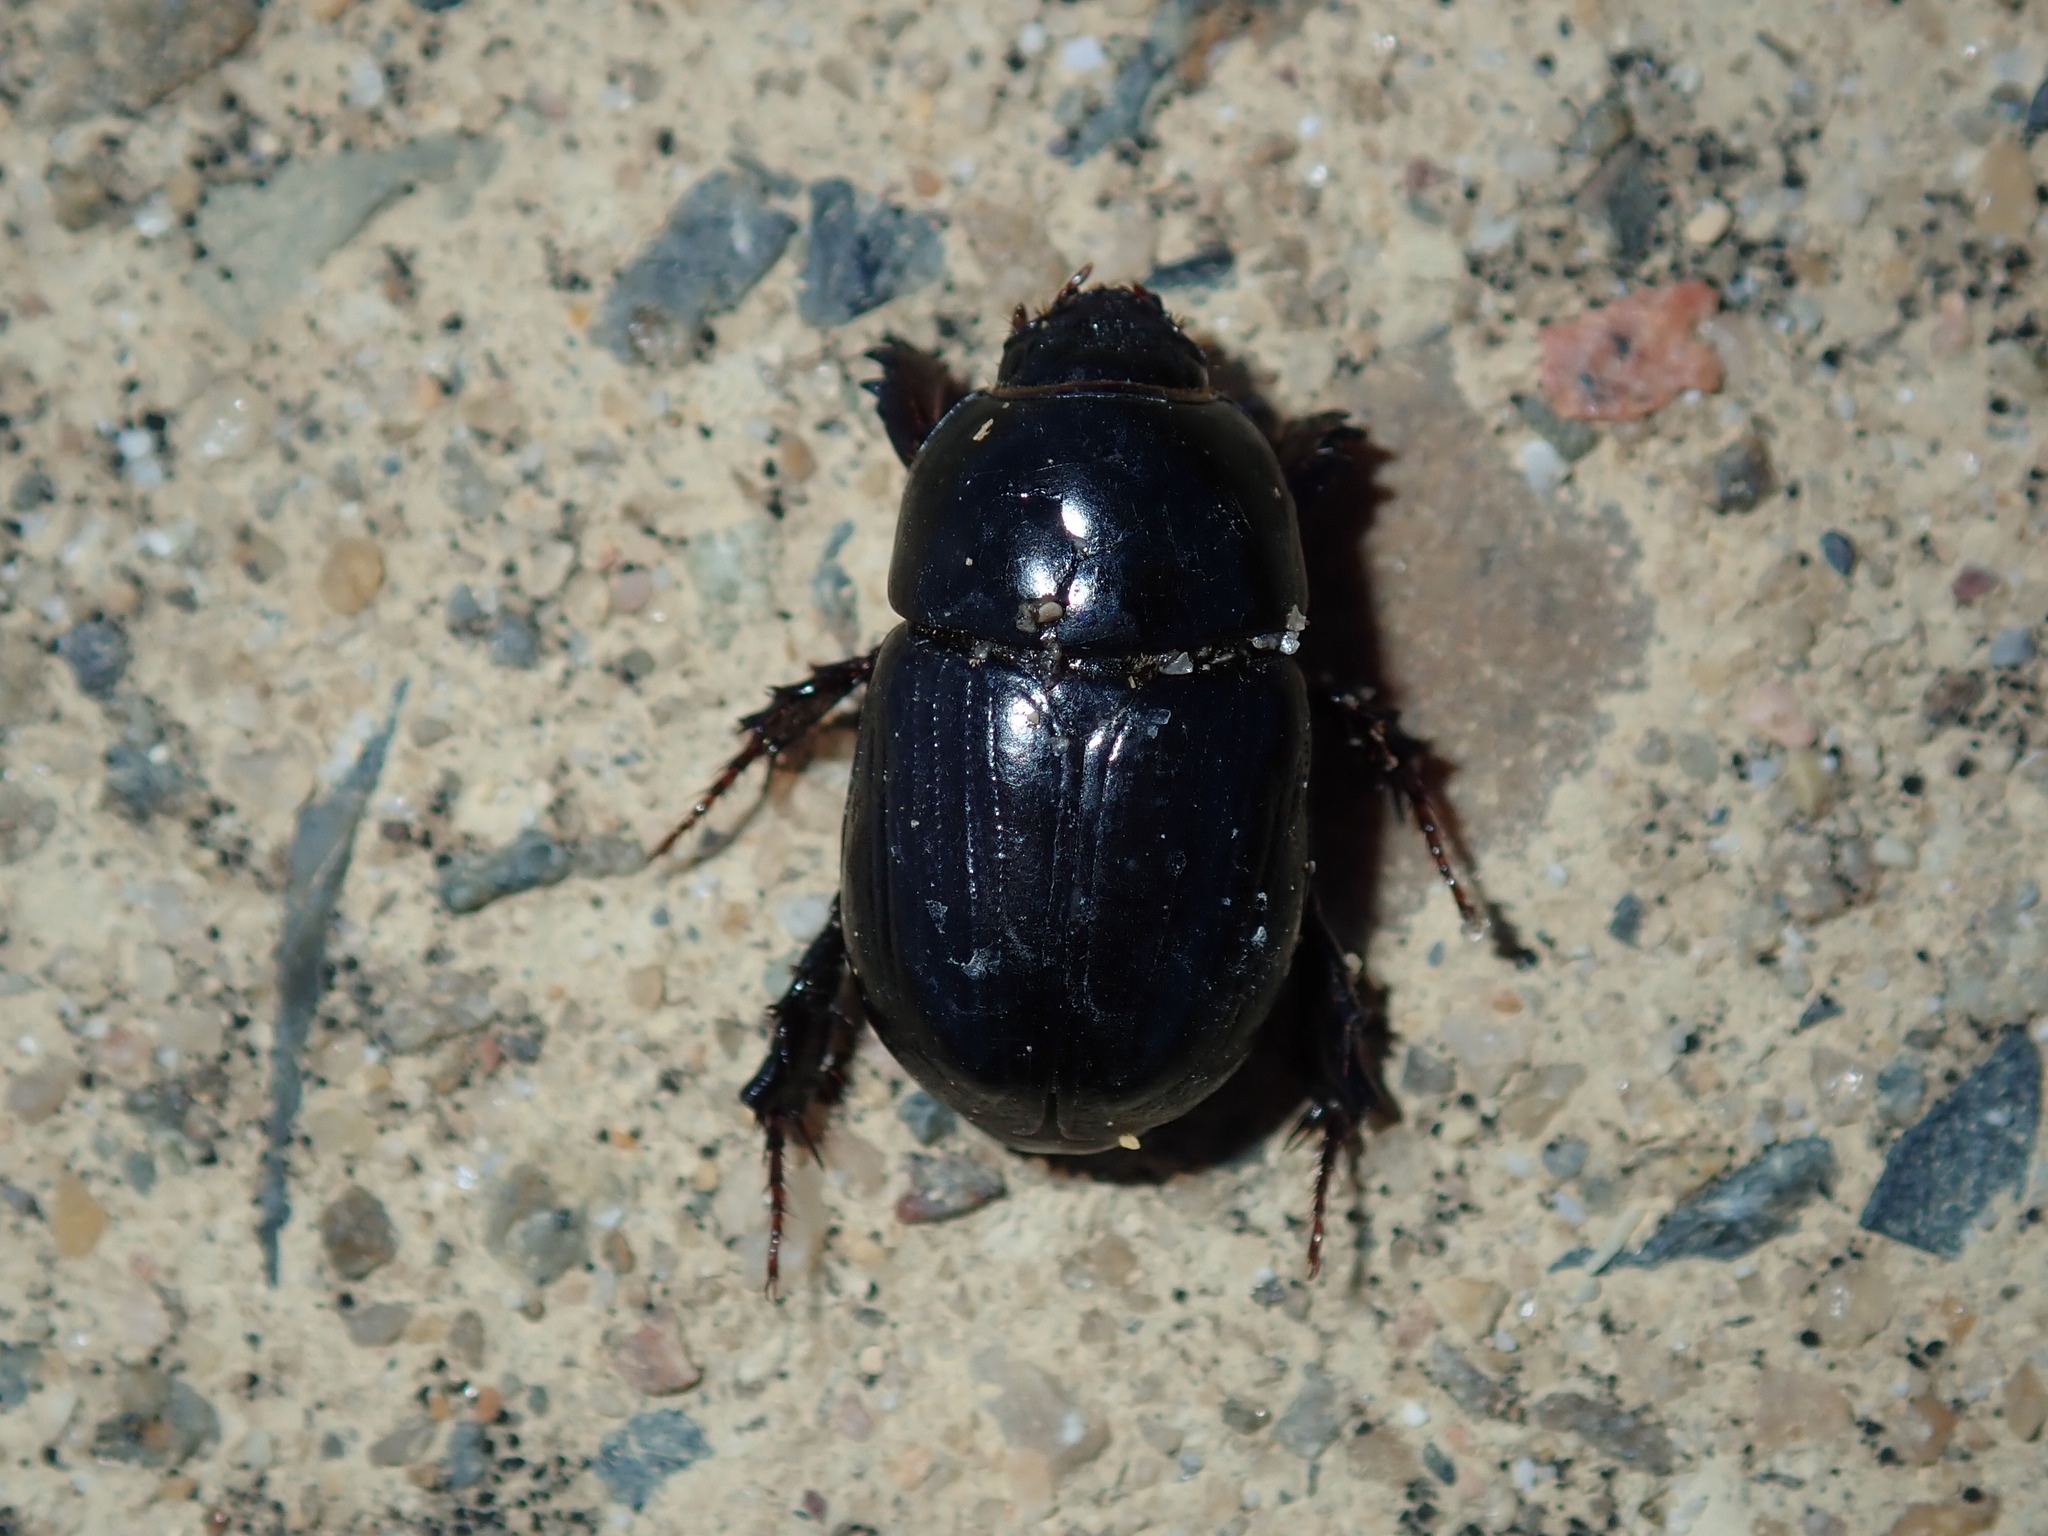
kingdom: Animalia
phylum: Arthropoda
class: Insecta
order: Coleoptera
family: Scarabaeidae
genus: Heteronychus
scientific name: Heteronychus arator
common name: African black beetle
